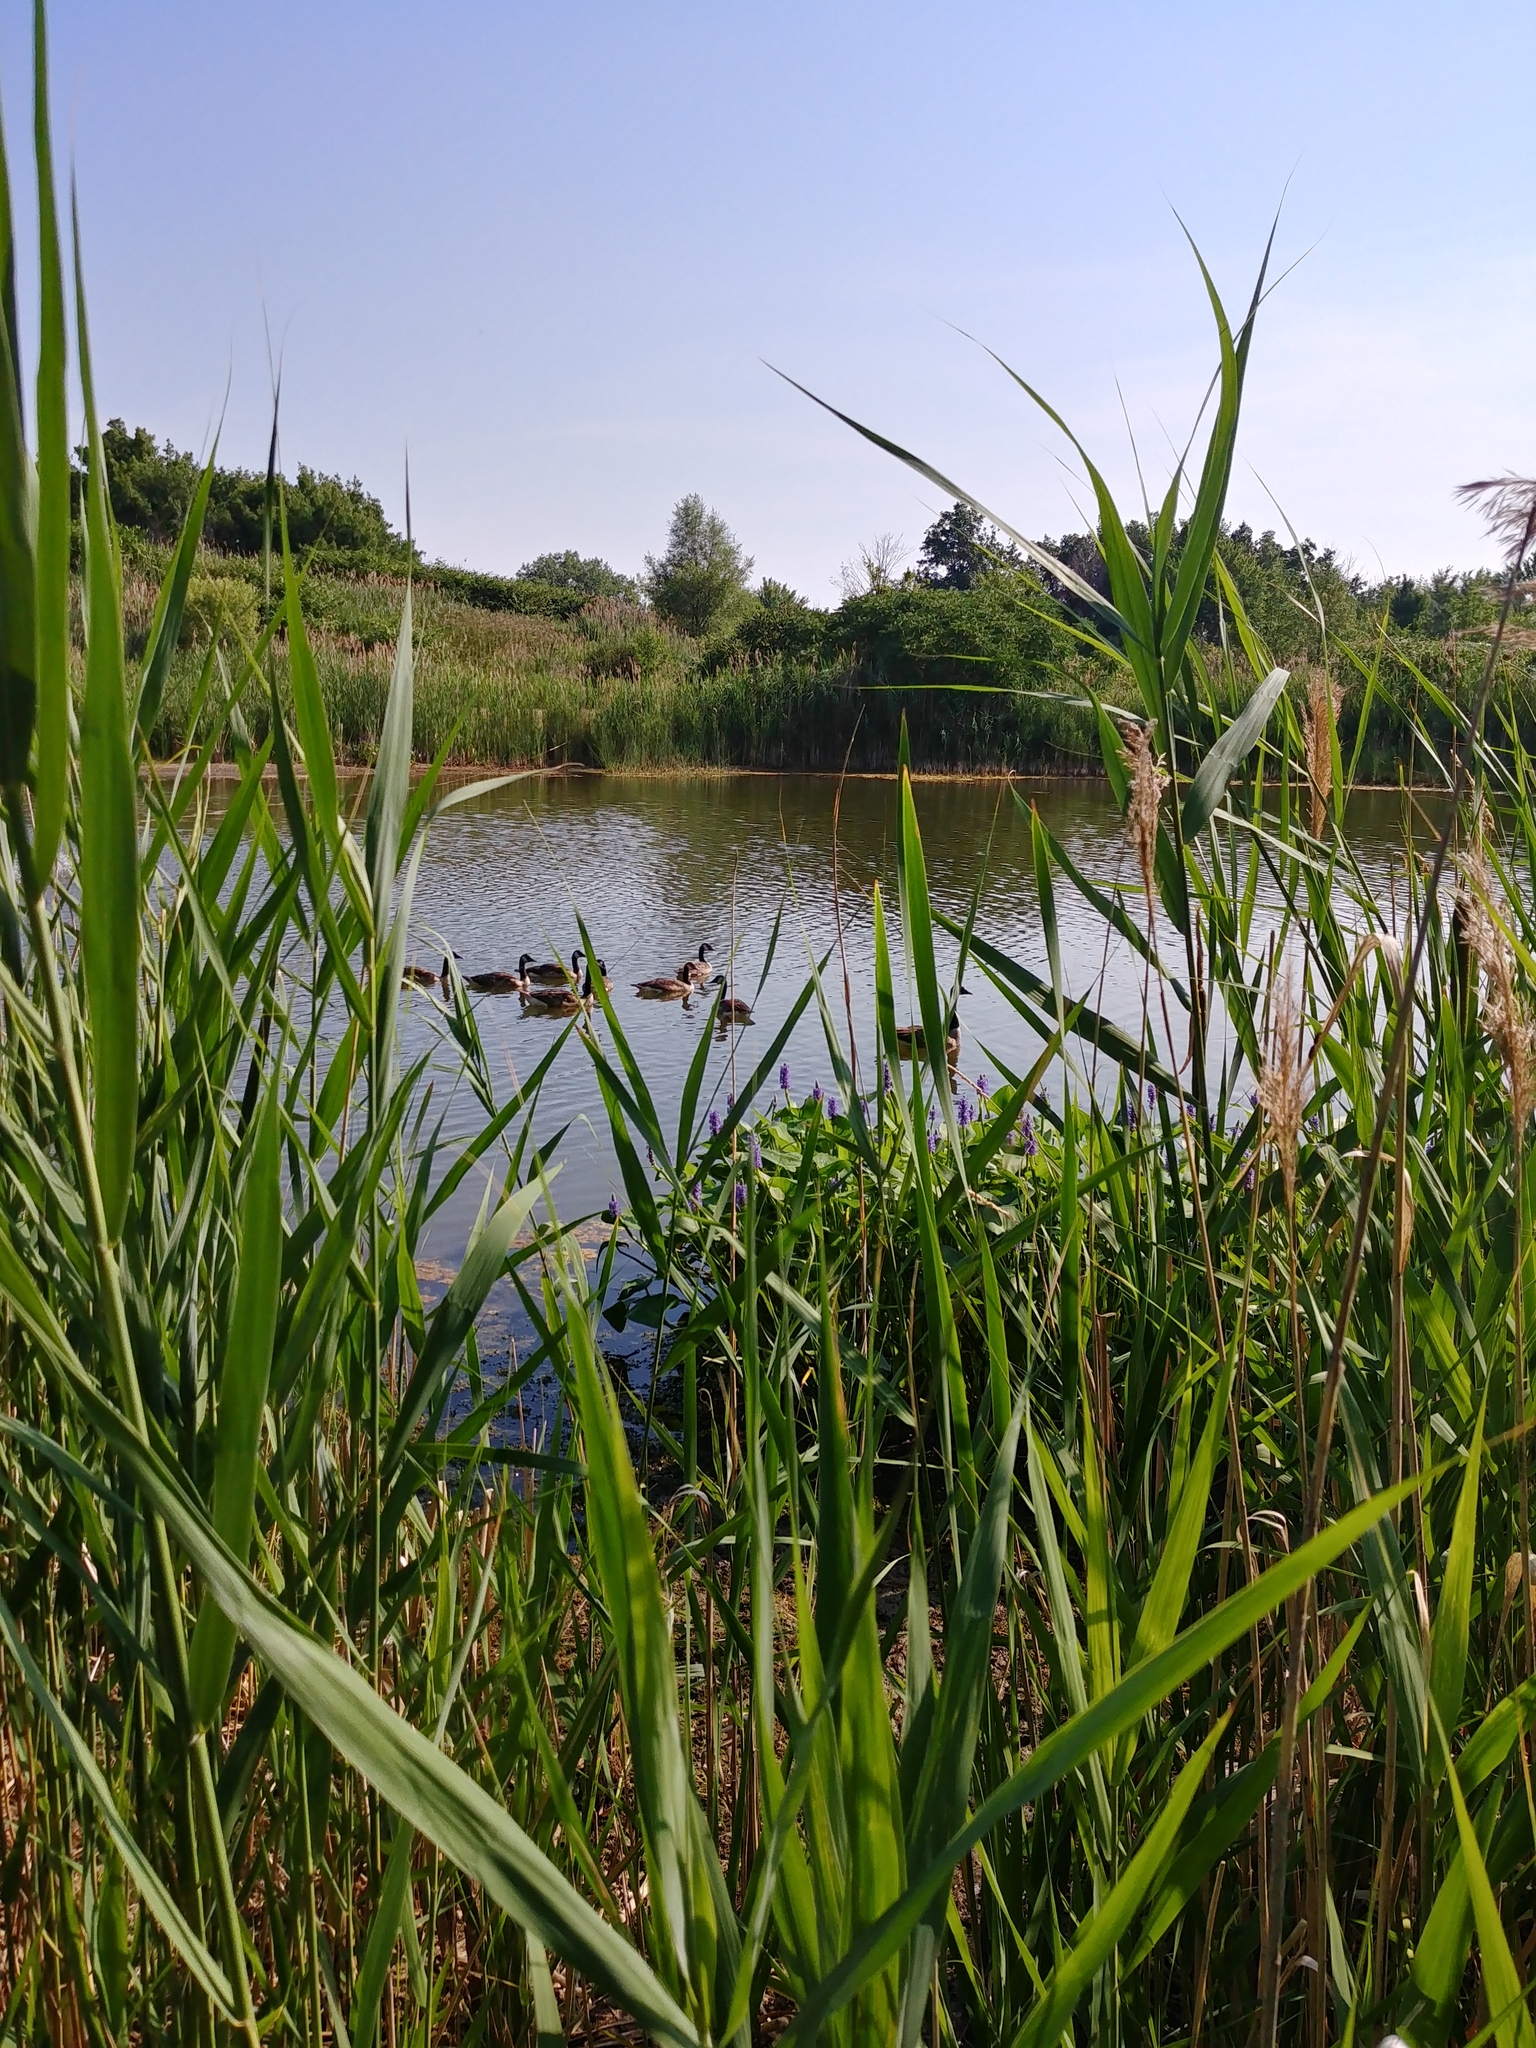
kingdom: Plantae
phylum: Tracheophyta
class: Liliopsida
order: Poales
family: Poaceae
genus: Phragmites
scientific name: Phragmites australis
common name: Common reed
